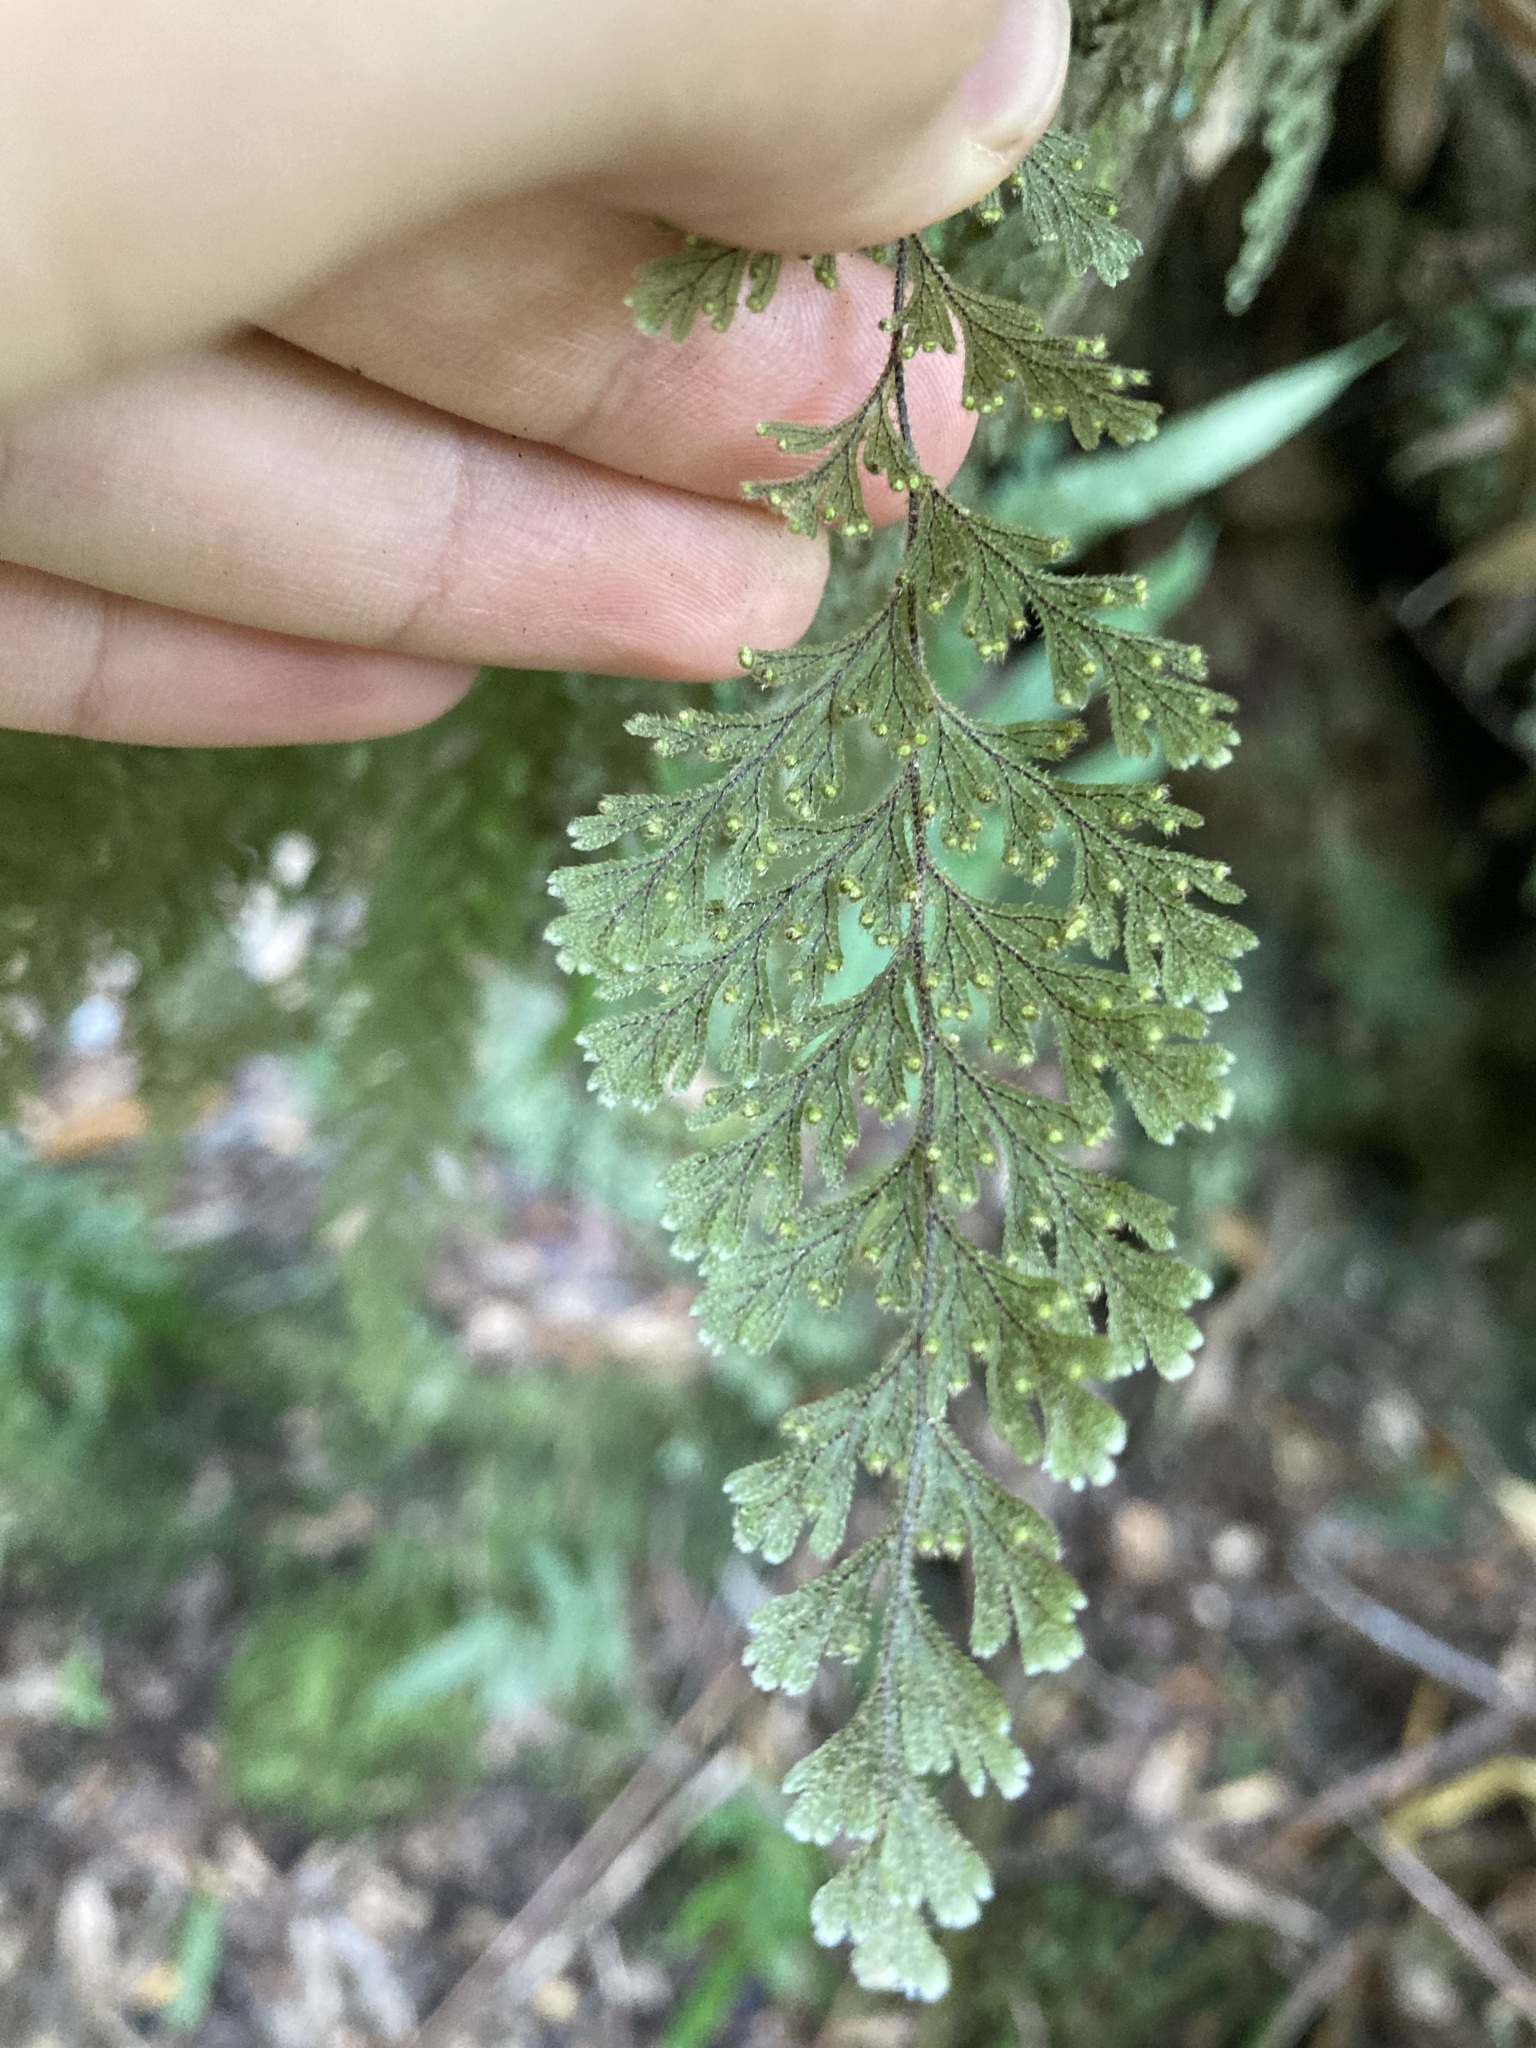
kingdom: Plantae
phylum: Tracheophyta
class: Polypodiopsida
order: Hymenophyllales
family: Hymenophyllaceae
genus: Hymenophyllum
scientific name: Hymenophyllum frankliniae
